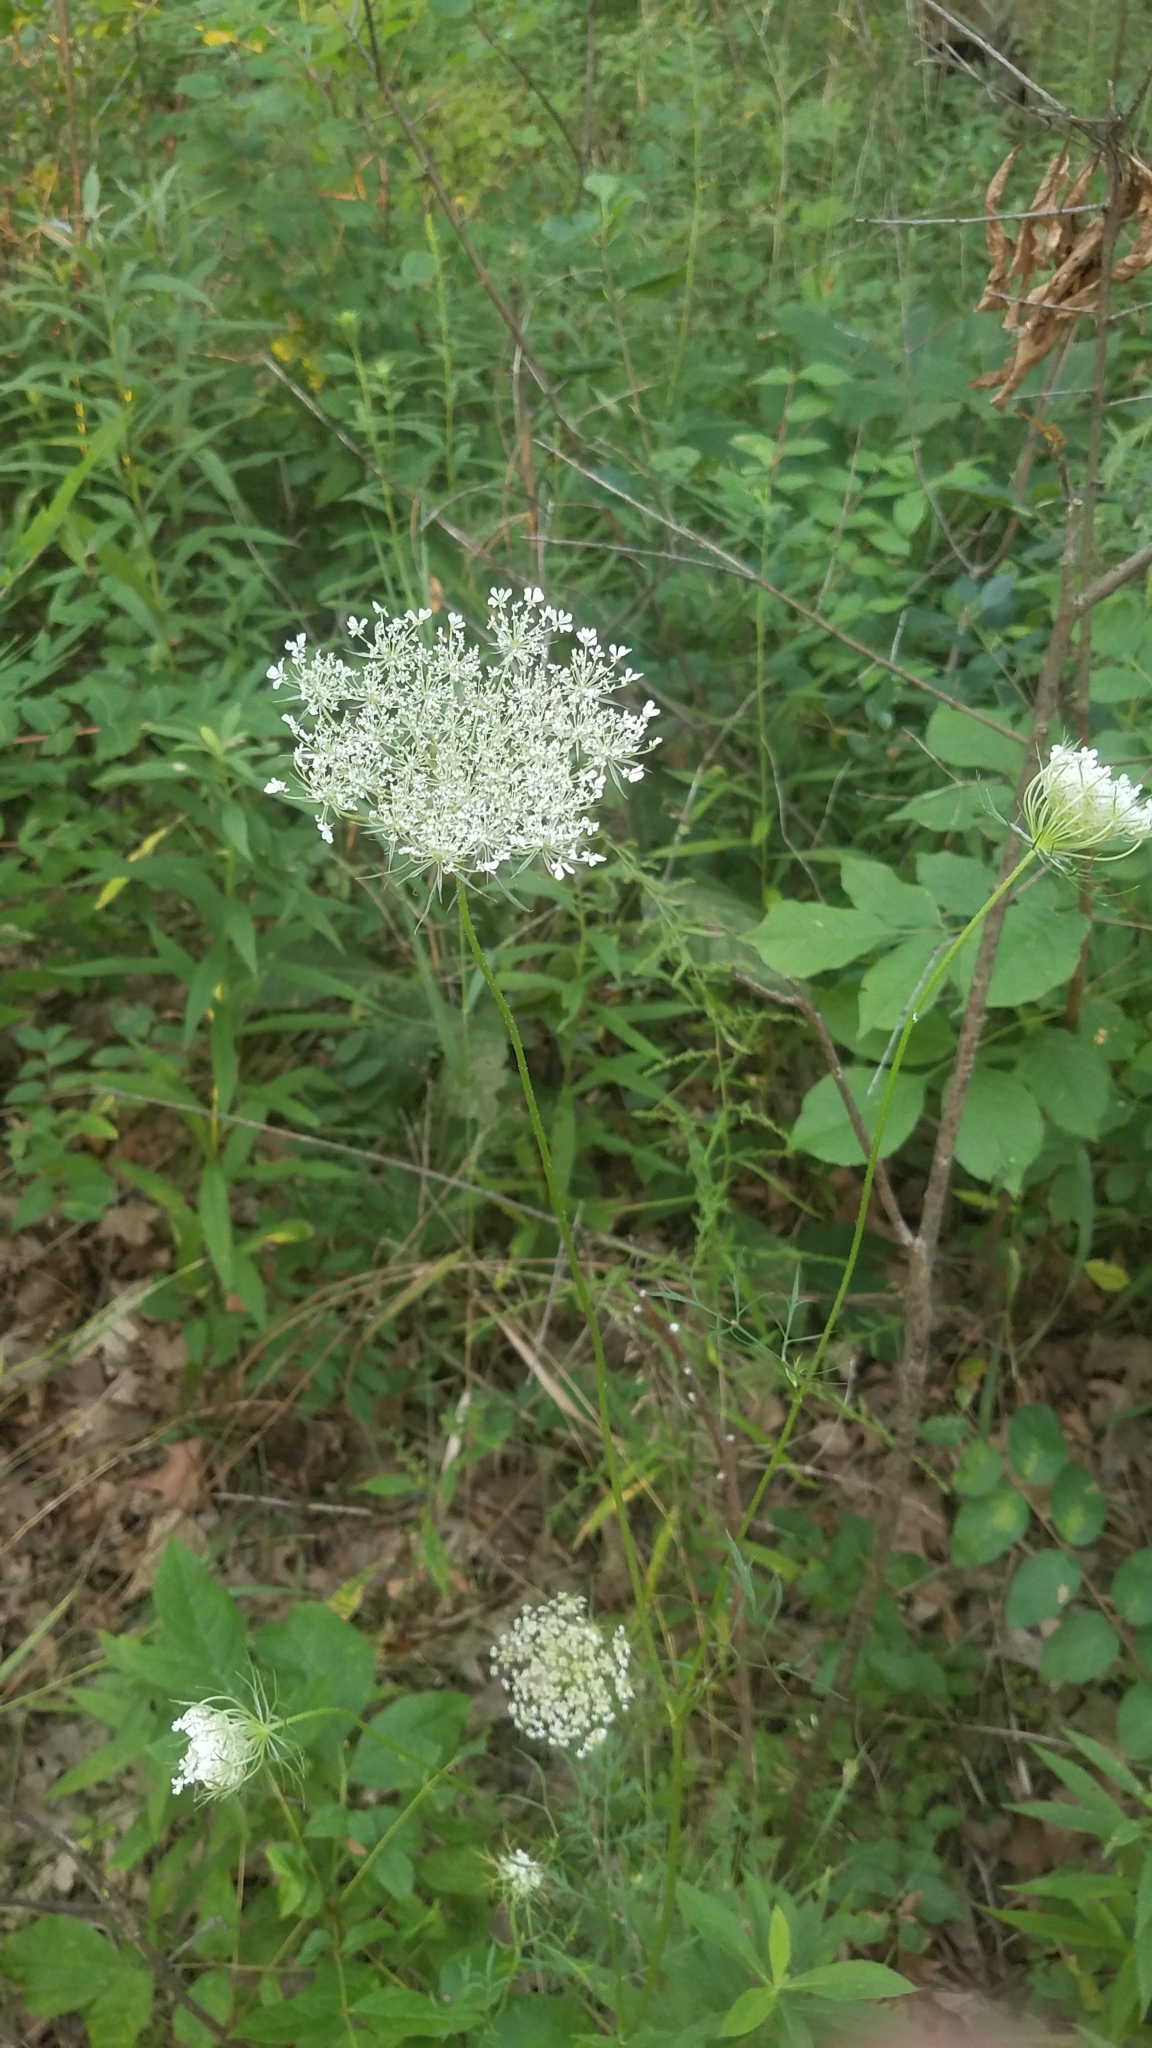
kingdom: Plantae
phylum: Tracheophyta
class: Magnoliopsida
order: Apiales
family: Apiaceae
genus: Daucus
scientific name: Daucus carota
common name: Wild carrot
